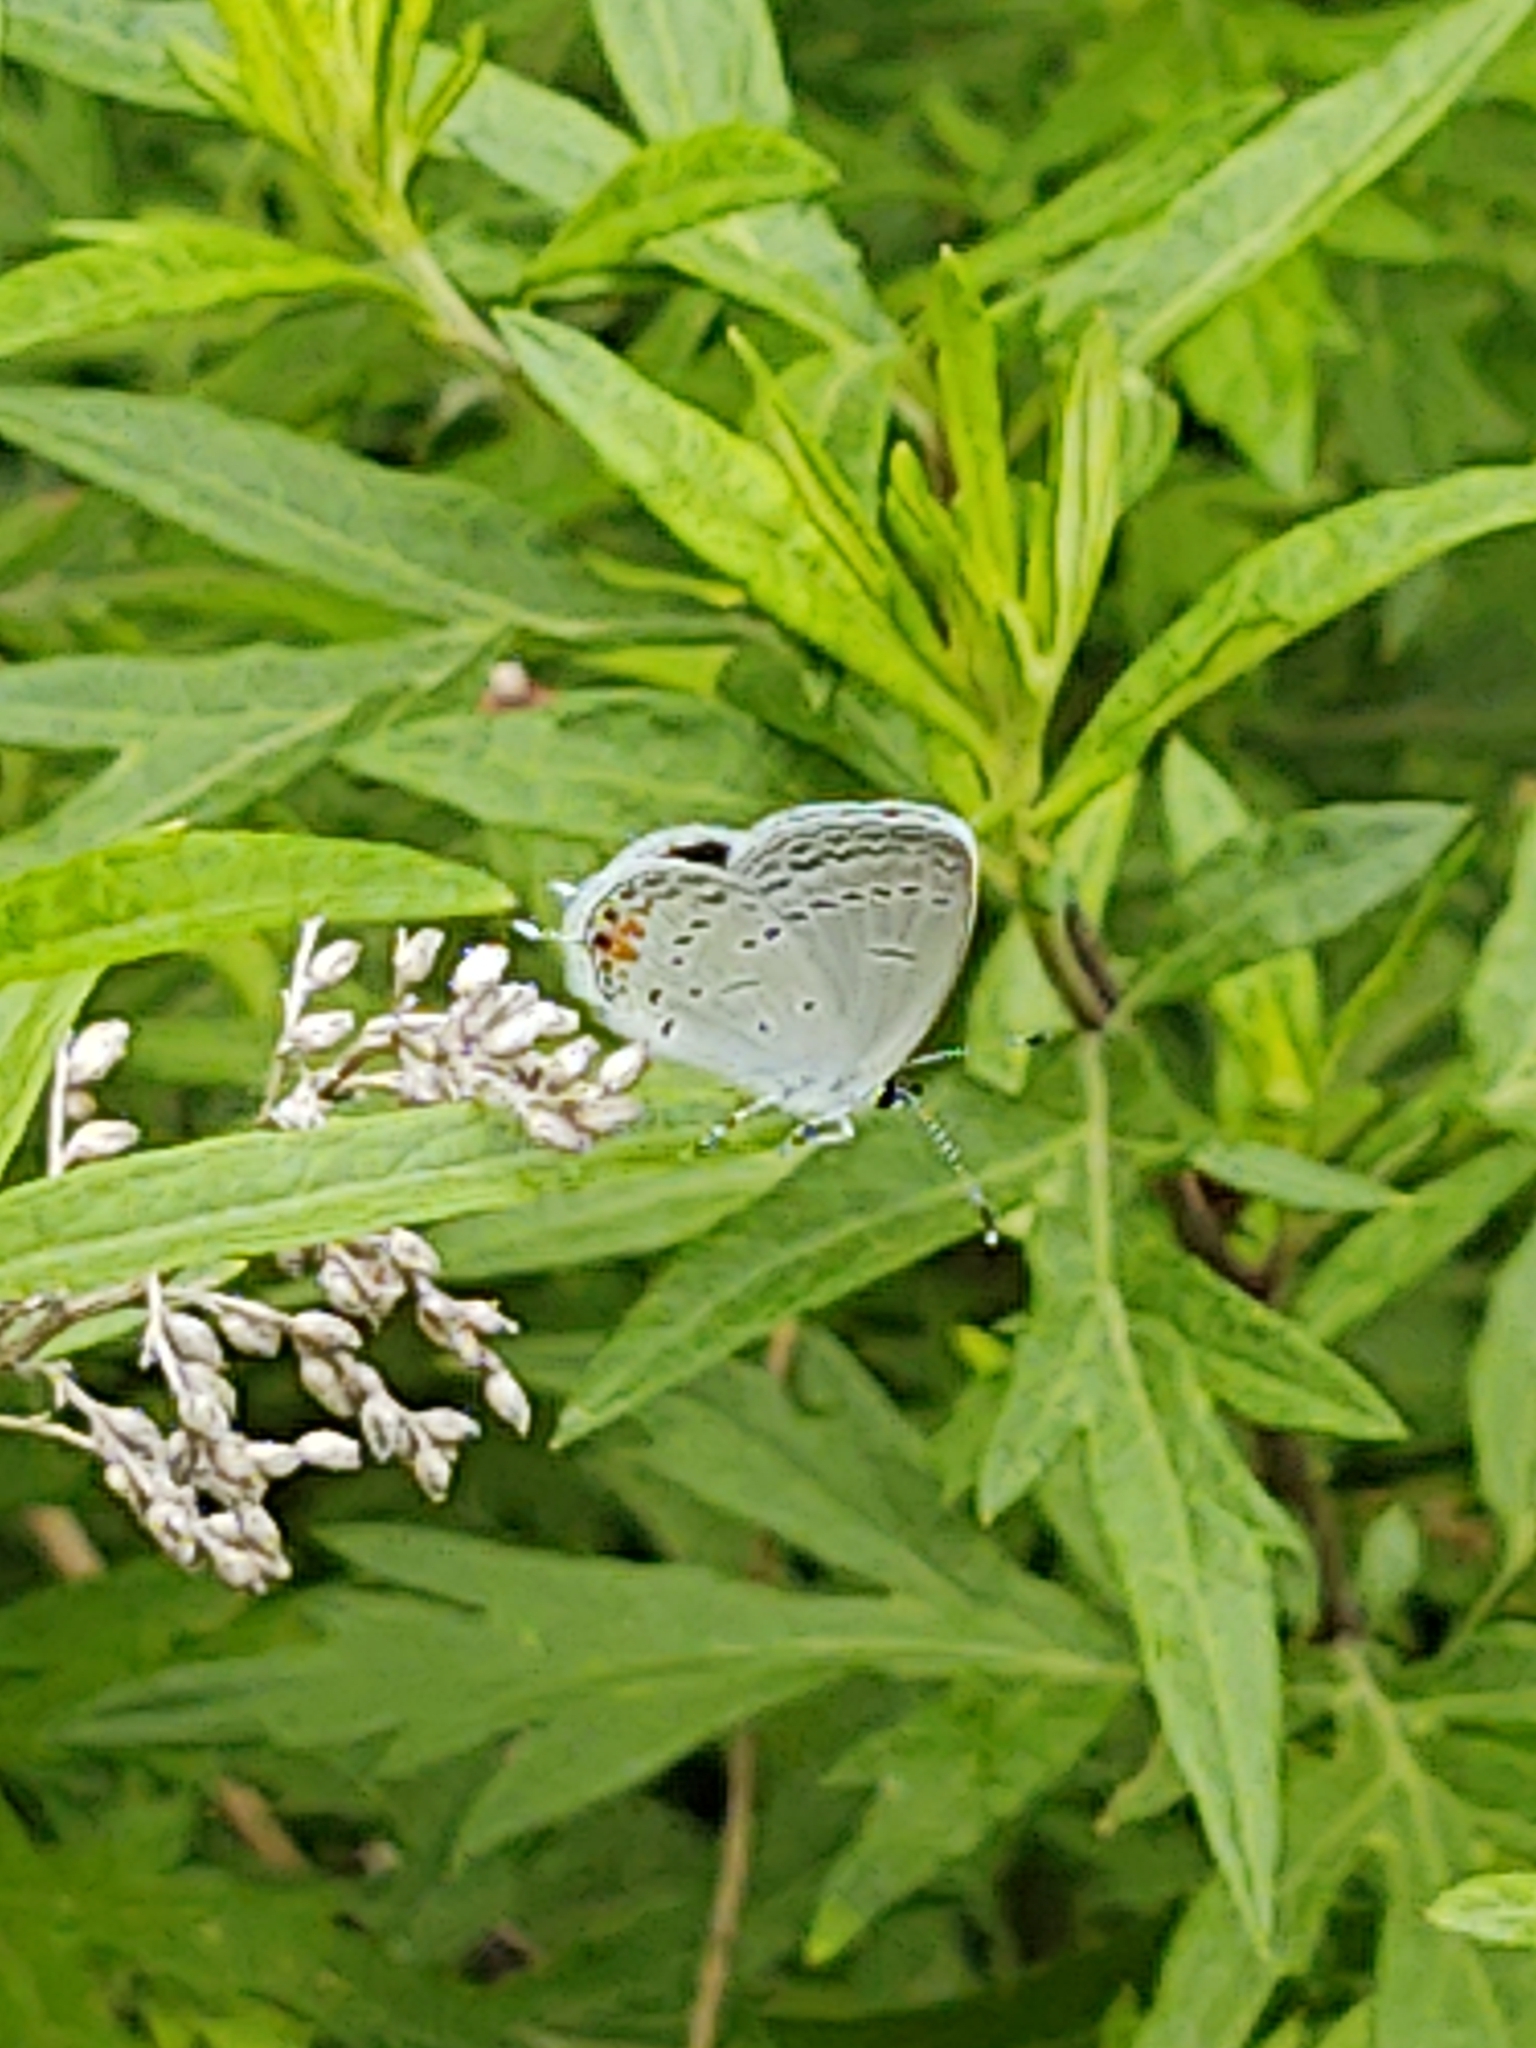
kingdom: Animalia
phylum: Arthropoda
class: Insecta
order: Lepidoptera
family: Lycaenidae
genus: Elkalyce
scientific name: Elkalyce comyntas
